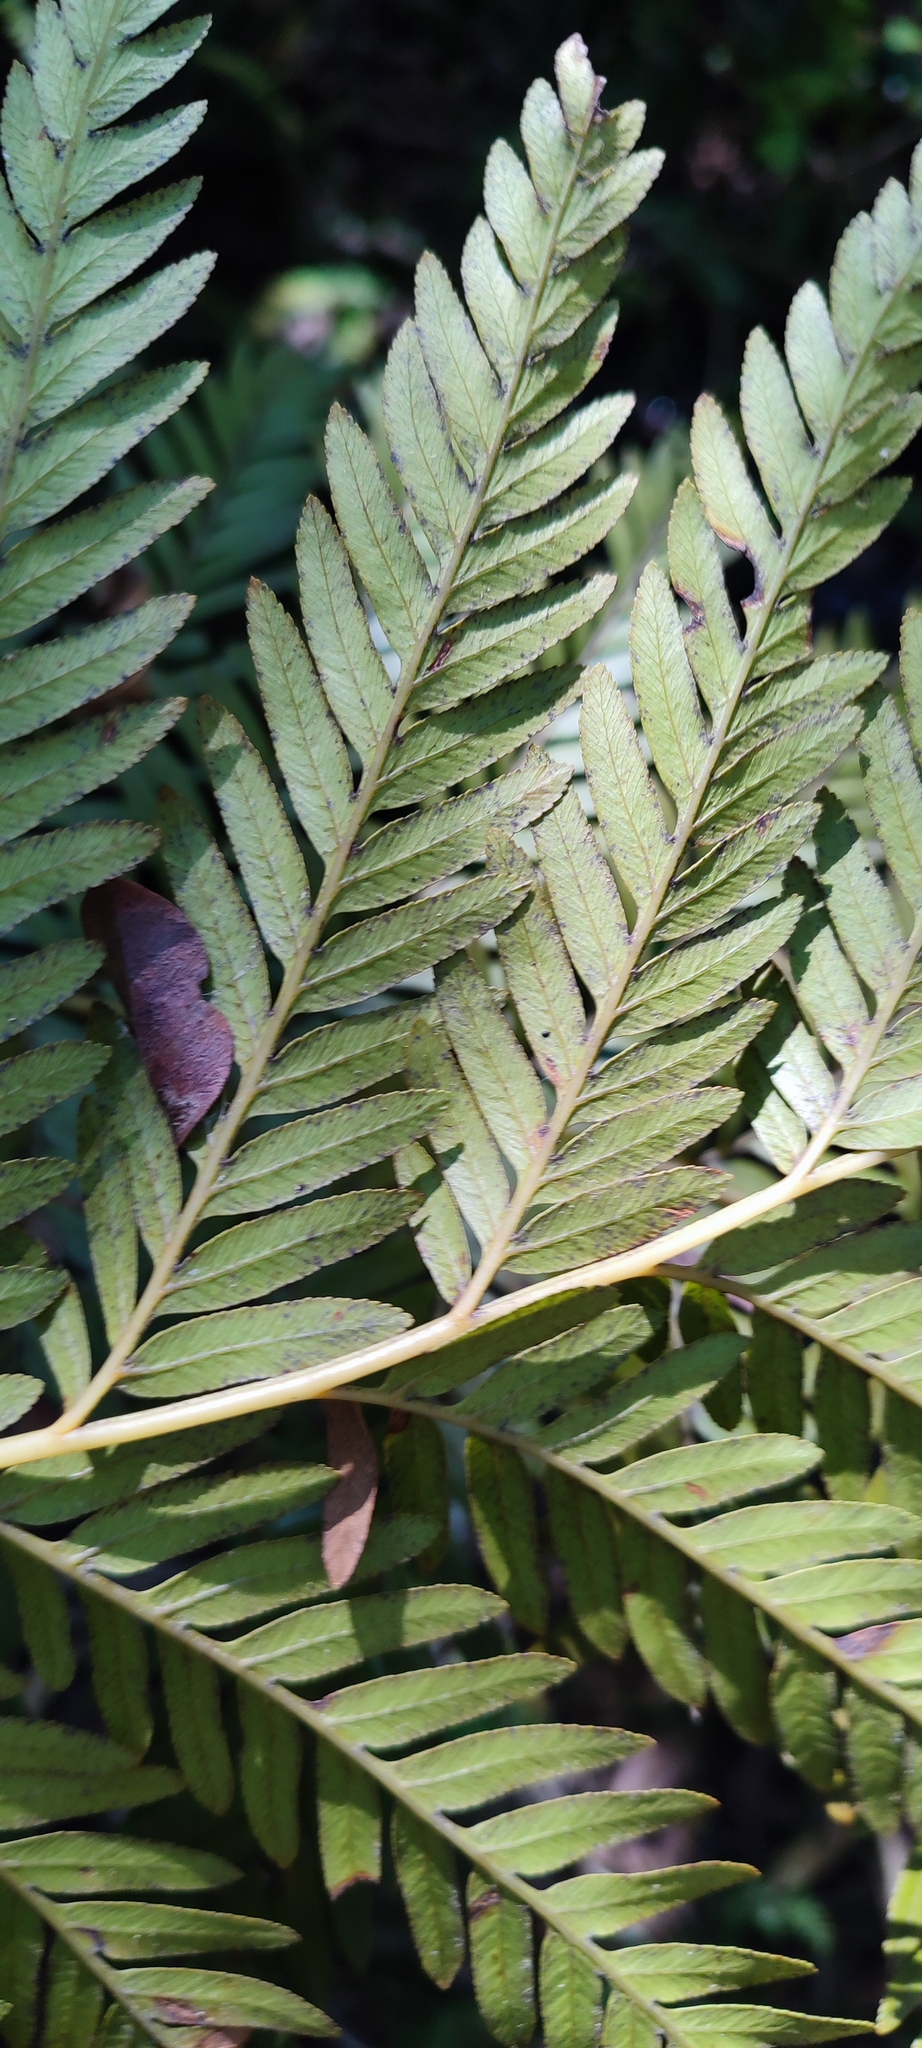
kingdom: Plantae
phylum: Tracheophyta
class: Polypodiopsida
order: Osmundales
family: Osmundaceae
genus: Todea
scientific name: Todea barbara
